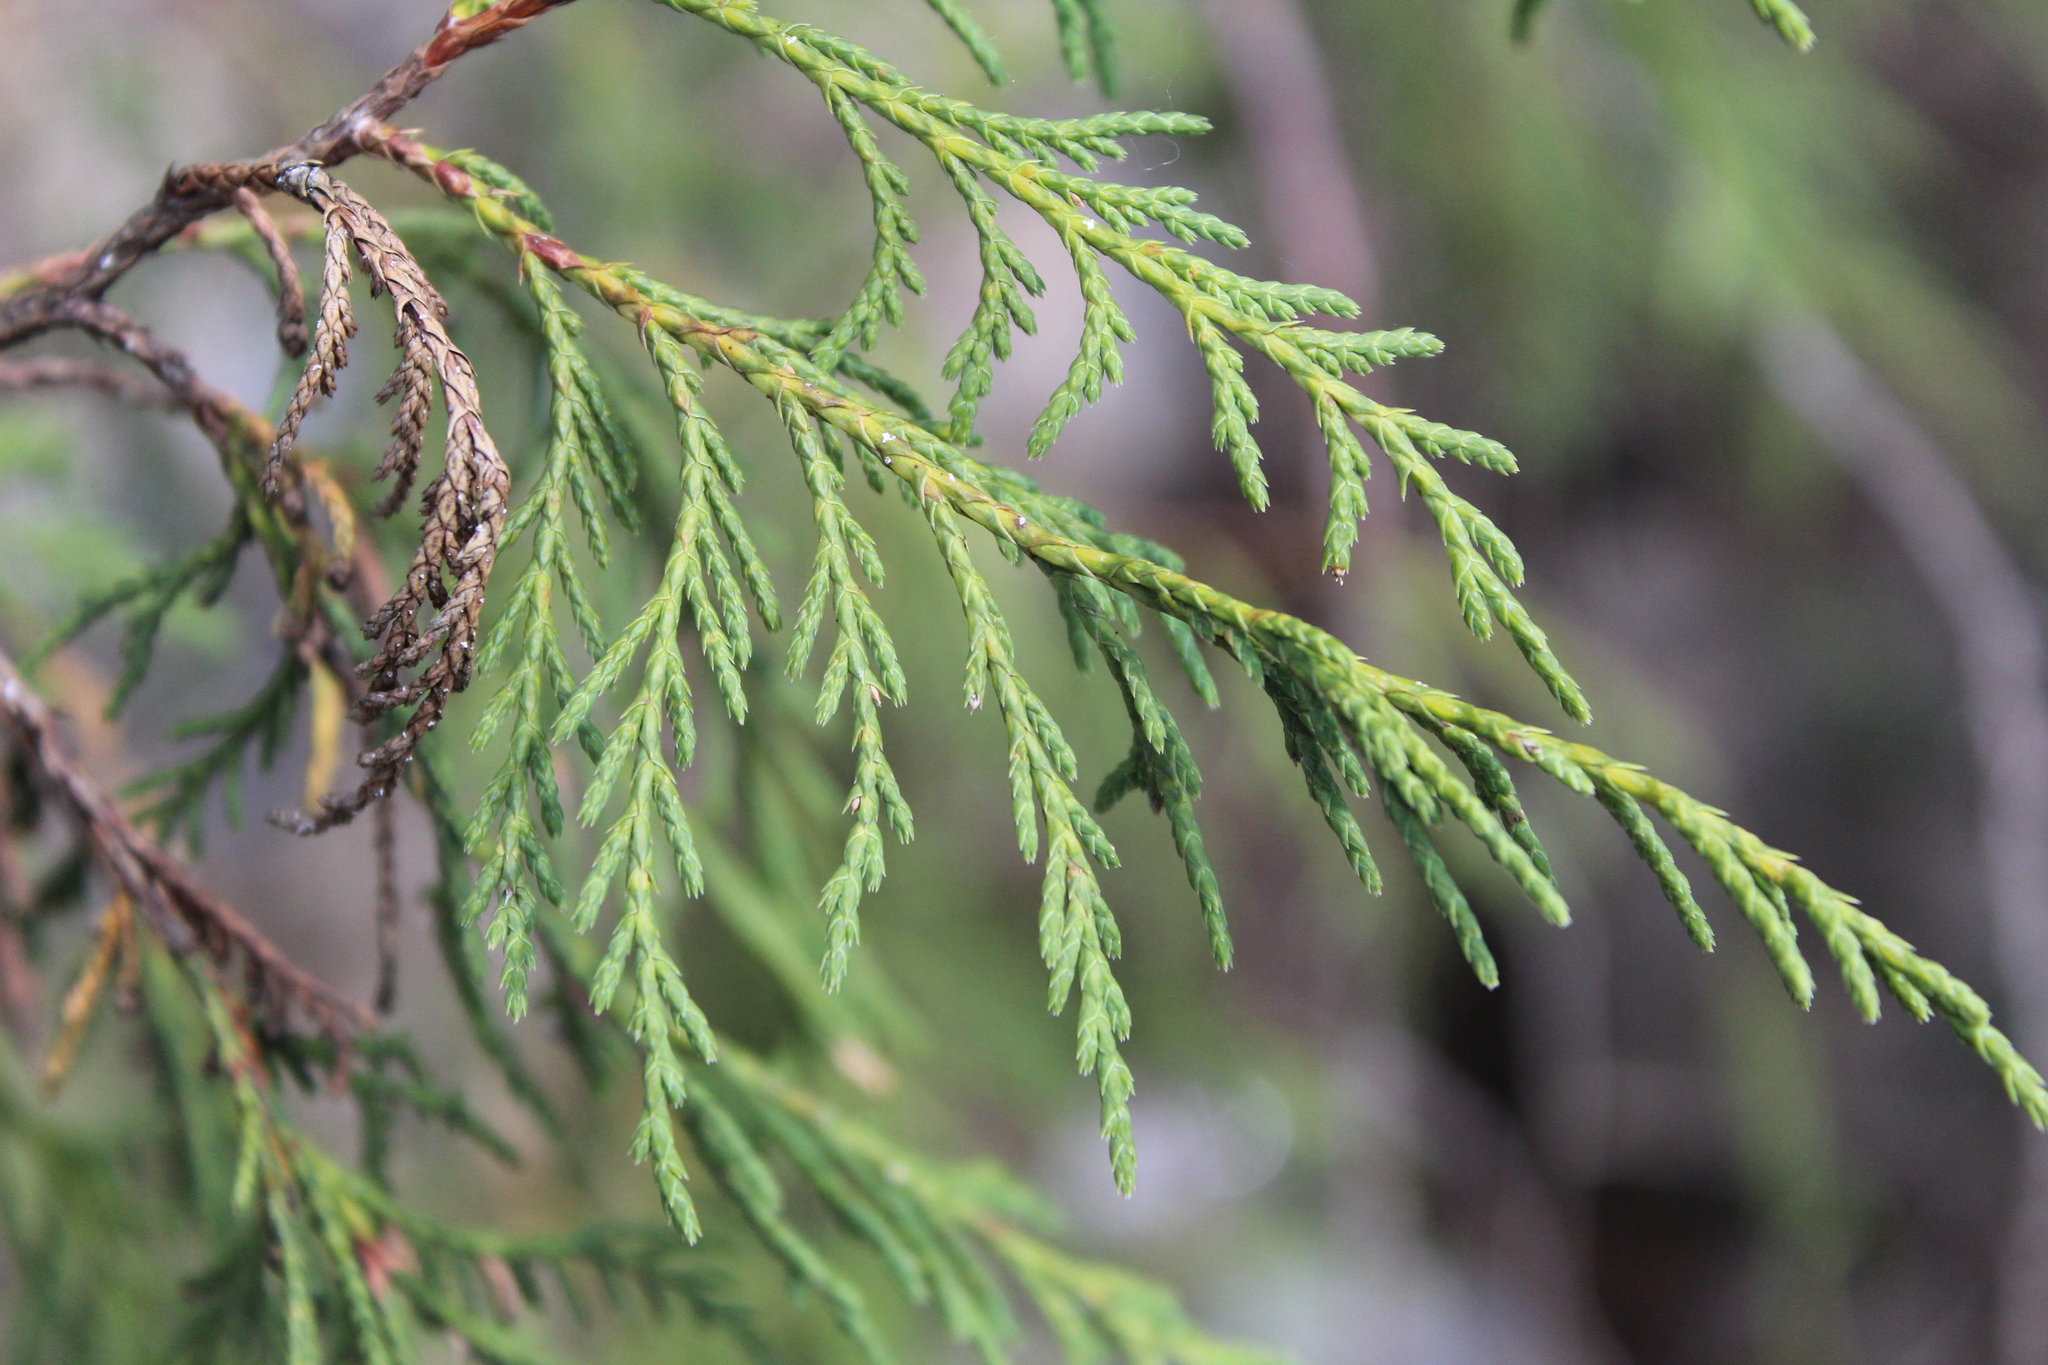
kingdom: Plantae
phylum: Tracheophyta
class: Pinopsida
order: Pinales
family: Cupressaceae
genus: Juniperus
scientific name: Juniperus flaccida
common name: Drooping juniper
